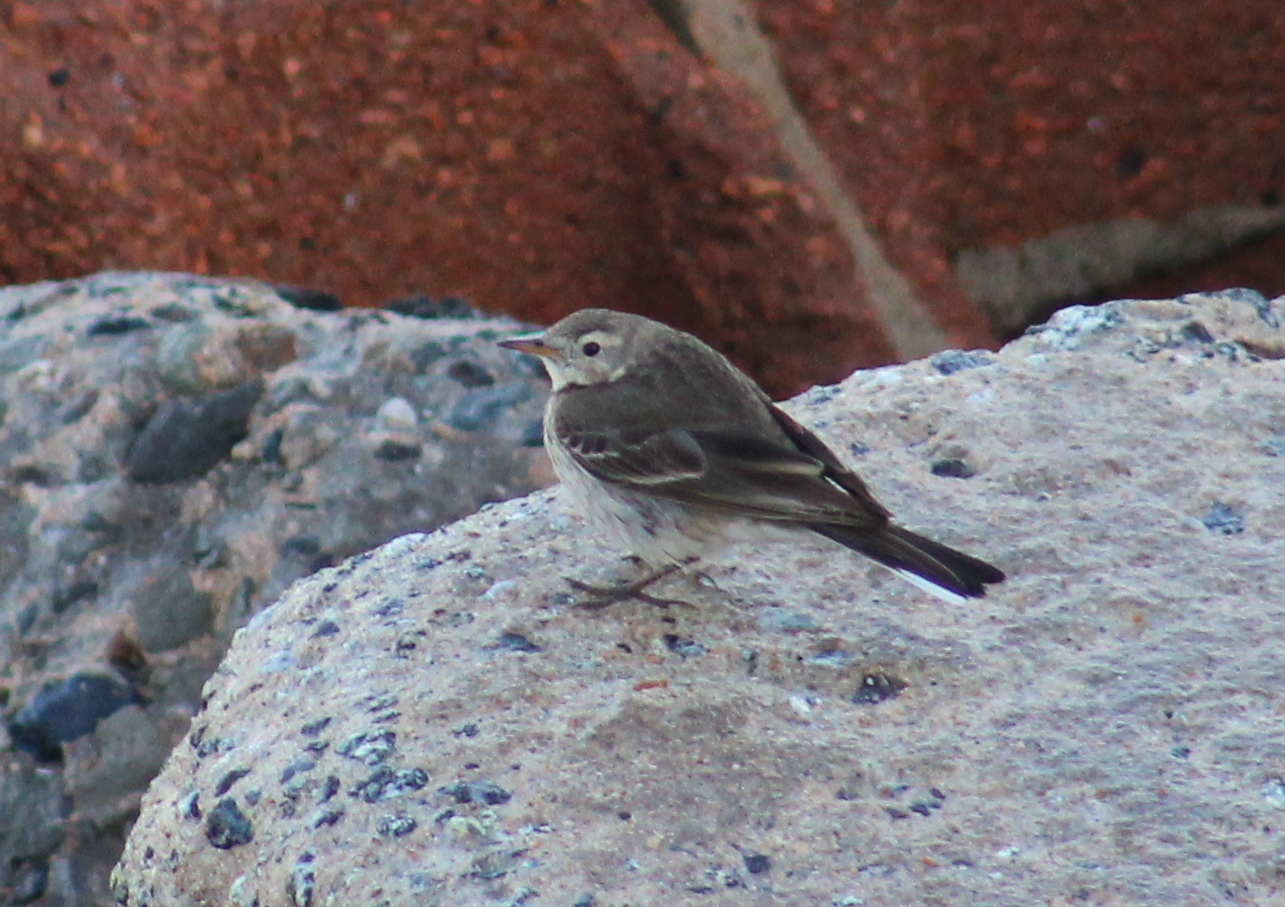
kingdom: Animalia
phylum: Chordata
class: Aves
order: Passeriformes
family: Motacillidae
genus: Anthus
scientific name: Anthus rubescens
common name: Buff-bellied pipit
